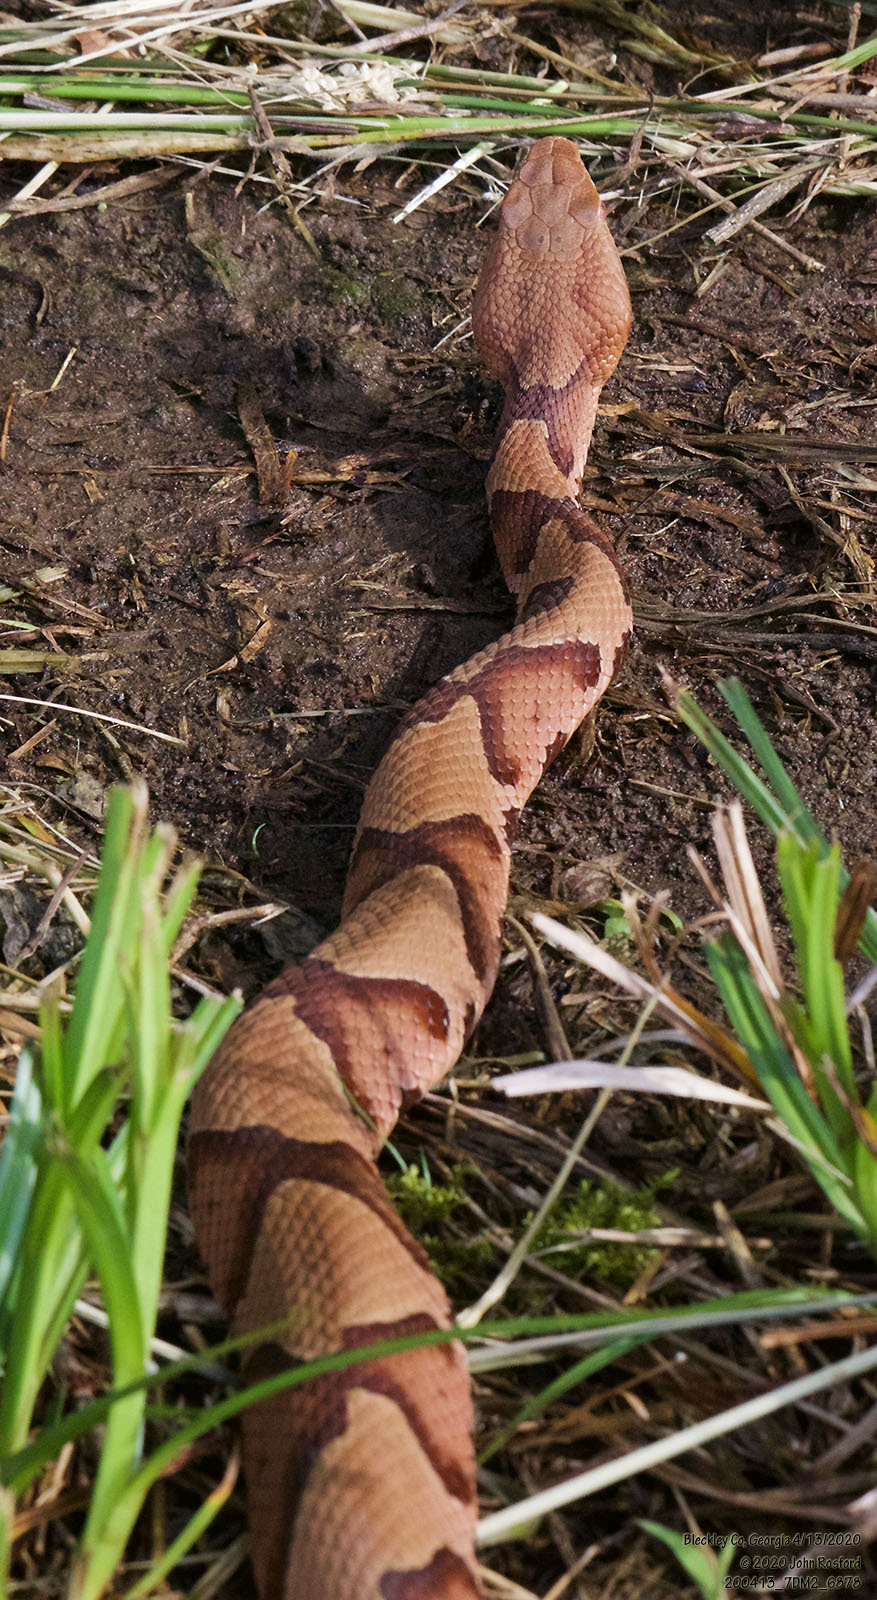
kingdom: Animalia
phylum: Chordata
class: Squamata
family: Viperidae
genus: Agkistrodon
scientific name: Agkistrodon contortrix
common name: Northern copperhead
